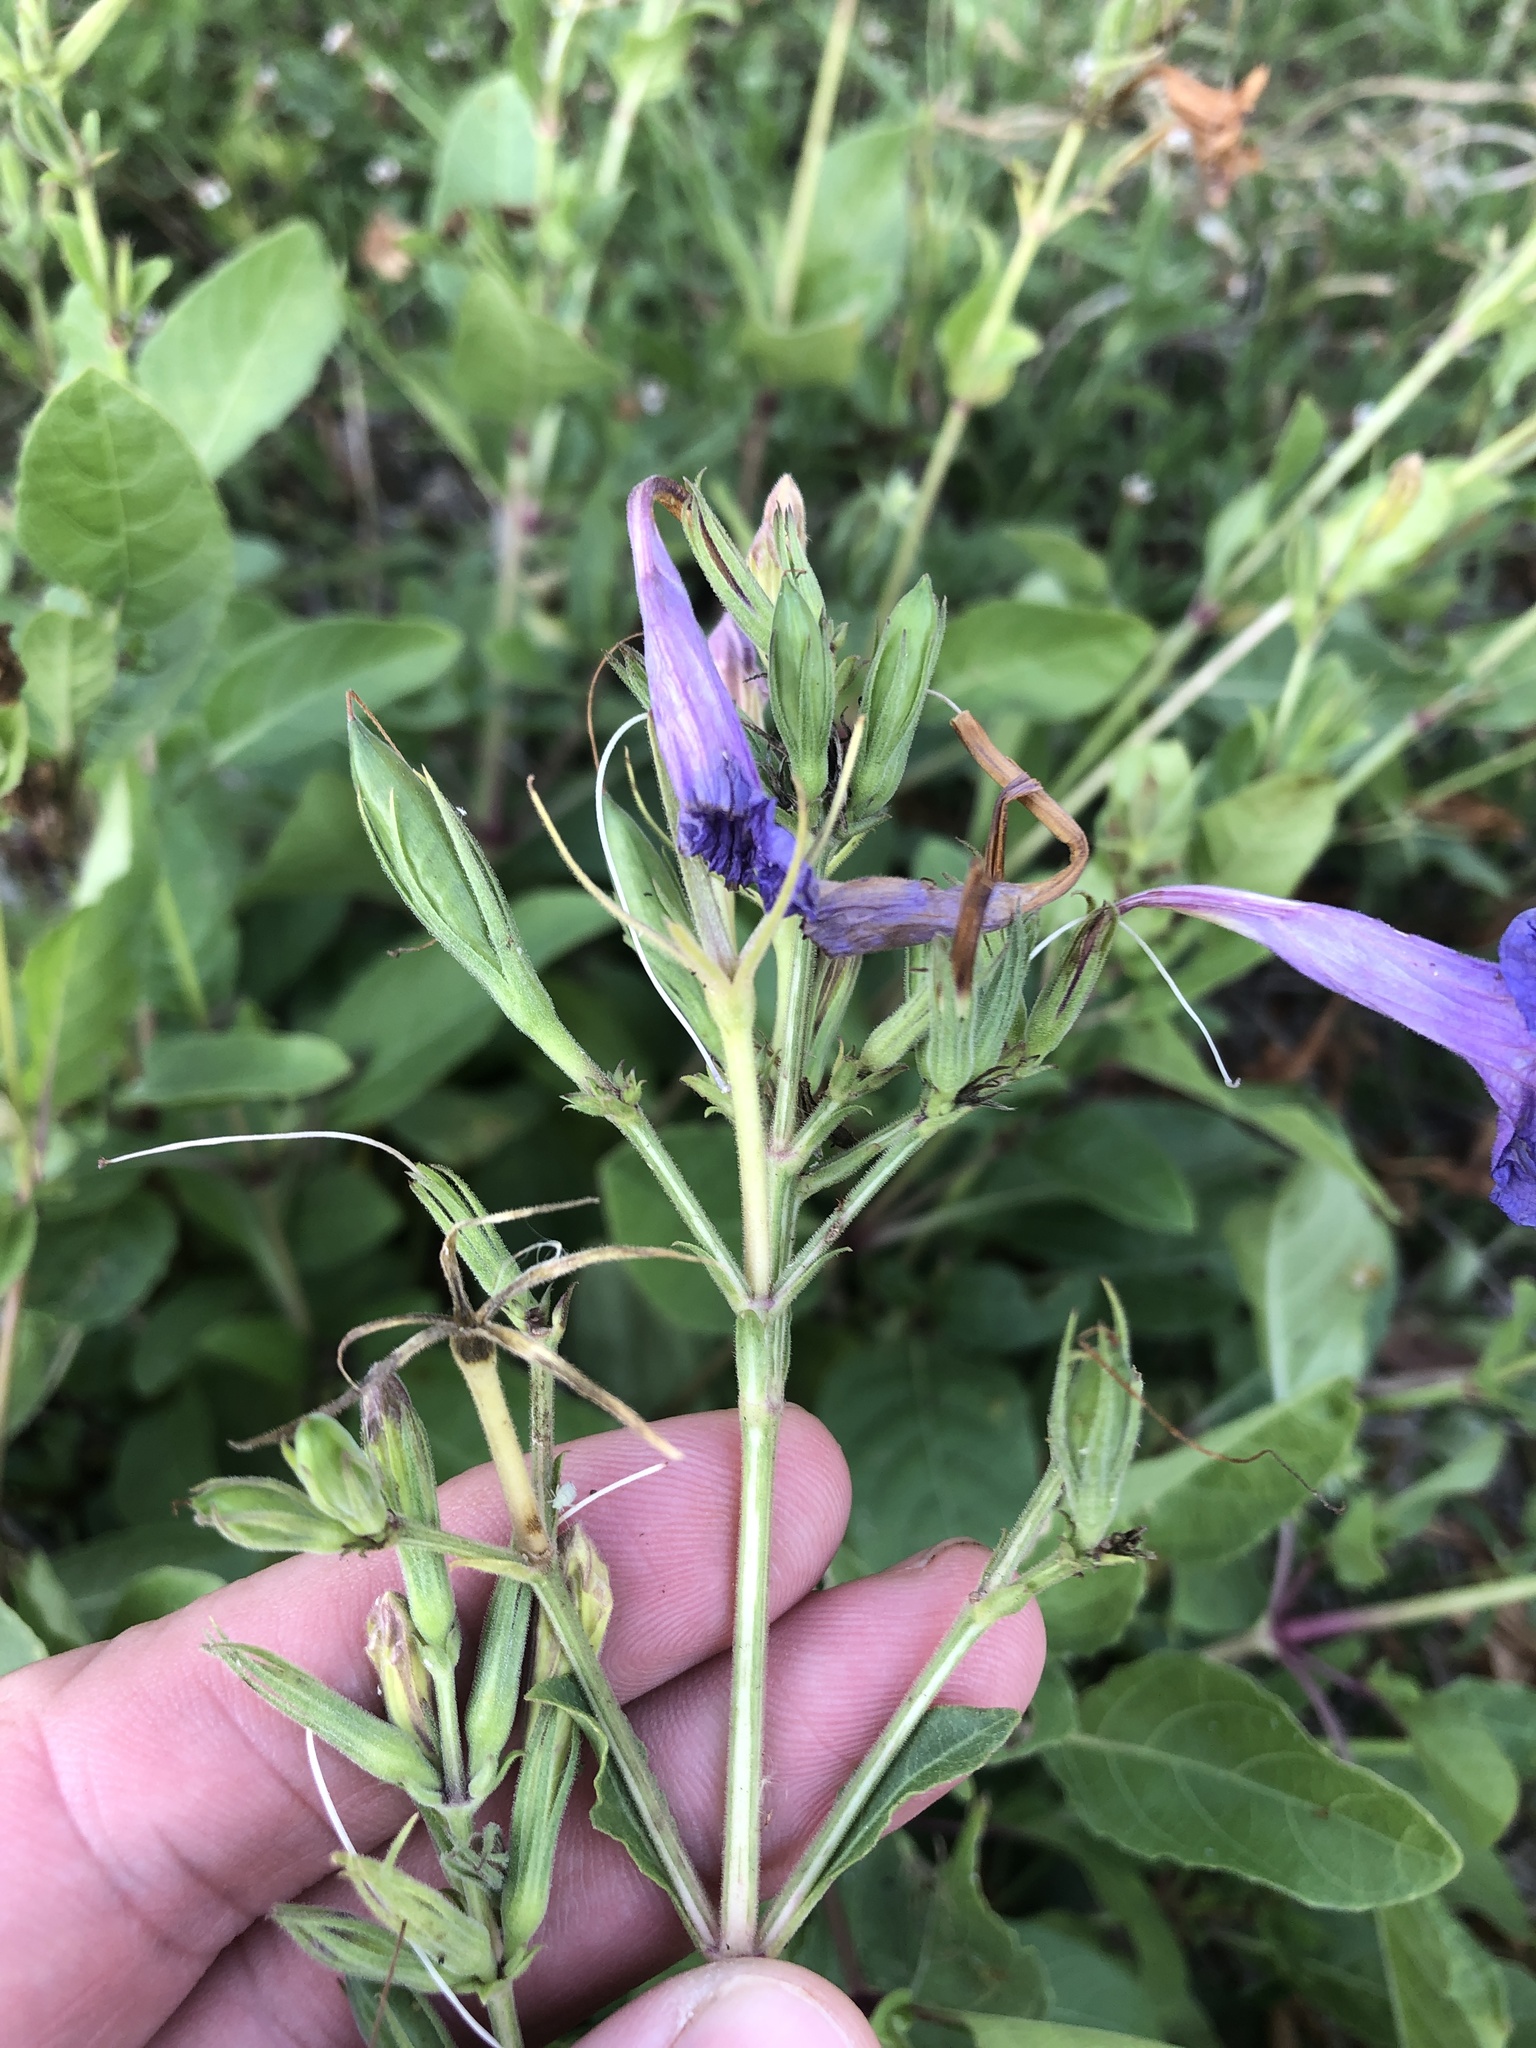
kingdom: Plantae
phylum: Tracheophyta
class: Magnoliopsida
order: Lamiales
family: Acanthaceae
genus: Ruellia
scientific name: Ruellia ciliatiflora
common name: Hairyflower wild petunia
